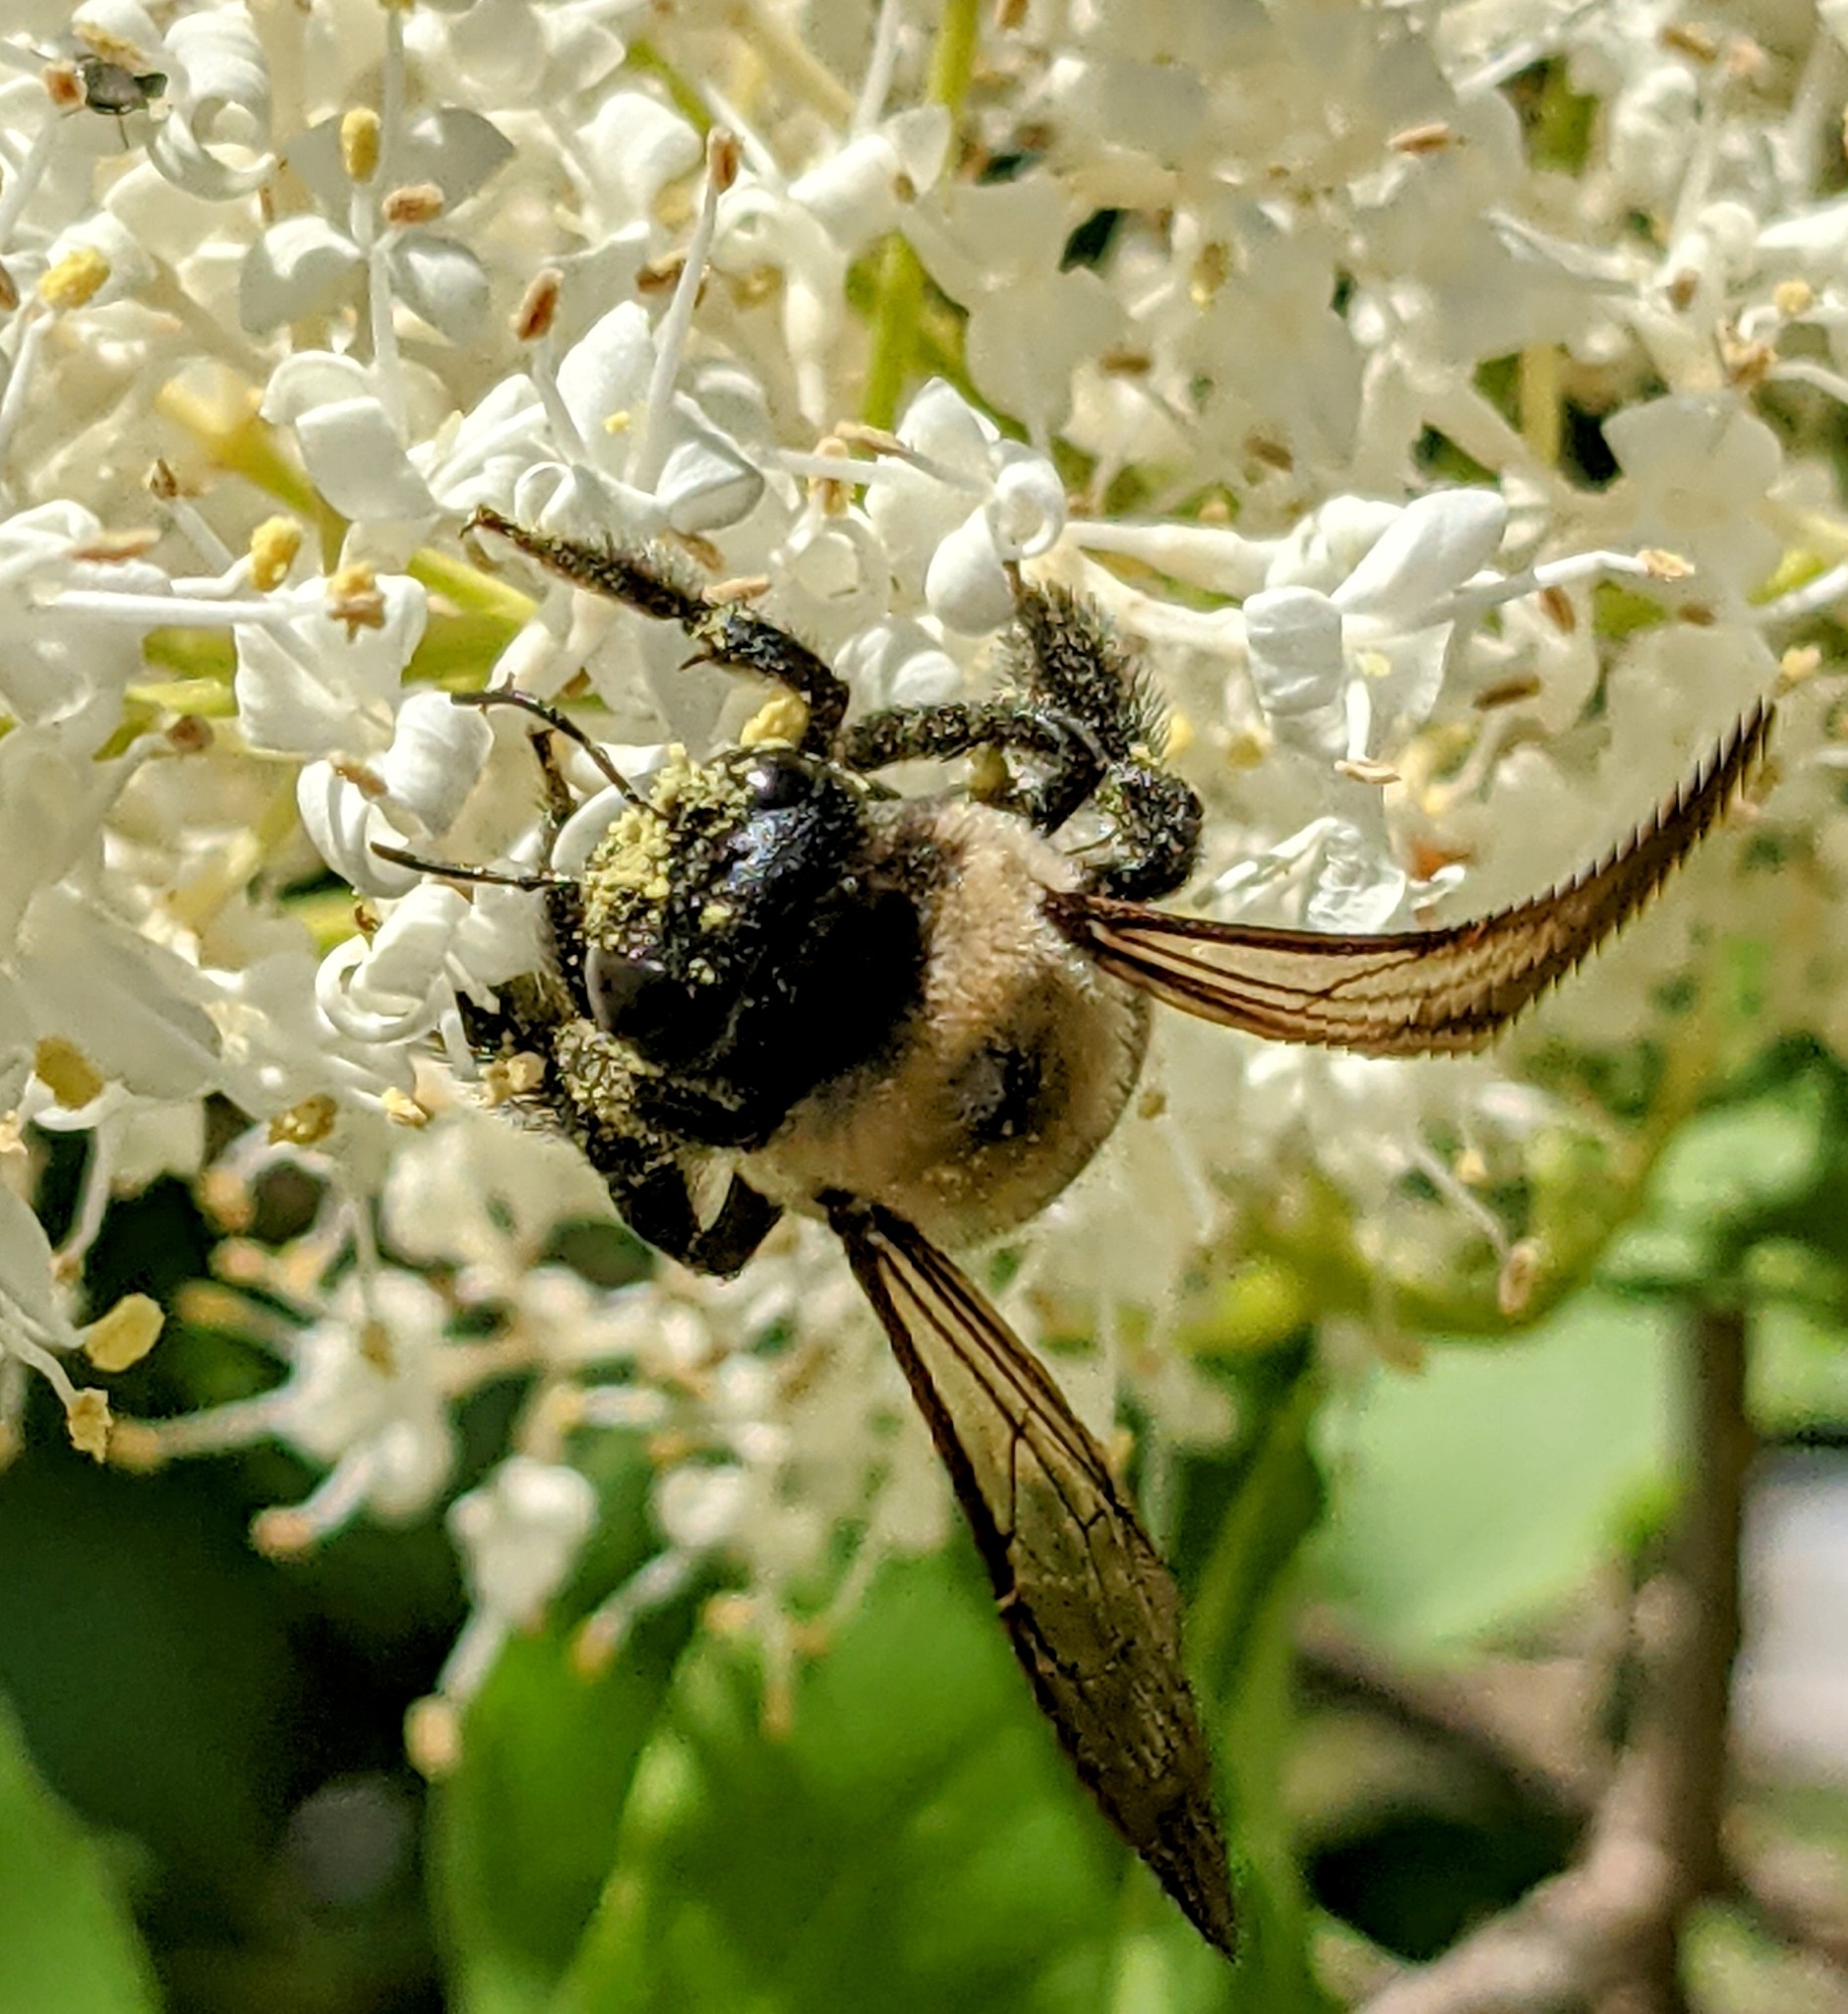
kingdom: Animalia
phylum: Arthropoda
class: Insecta
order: Hymenoptera
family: Apidae
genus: Xylocopa
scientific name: Xylocopa virginica
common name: Carpenter bee
